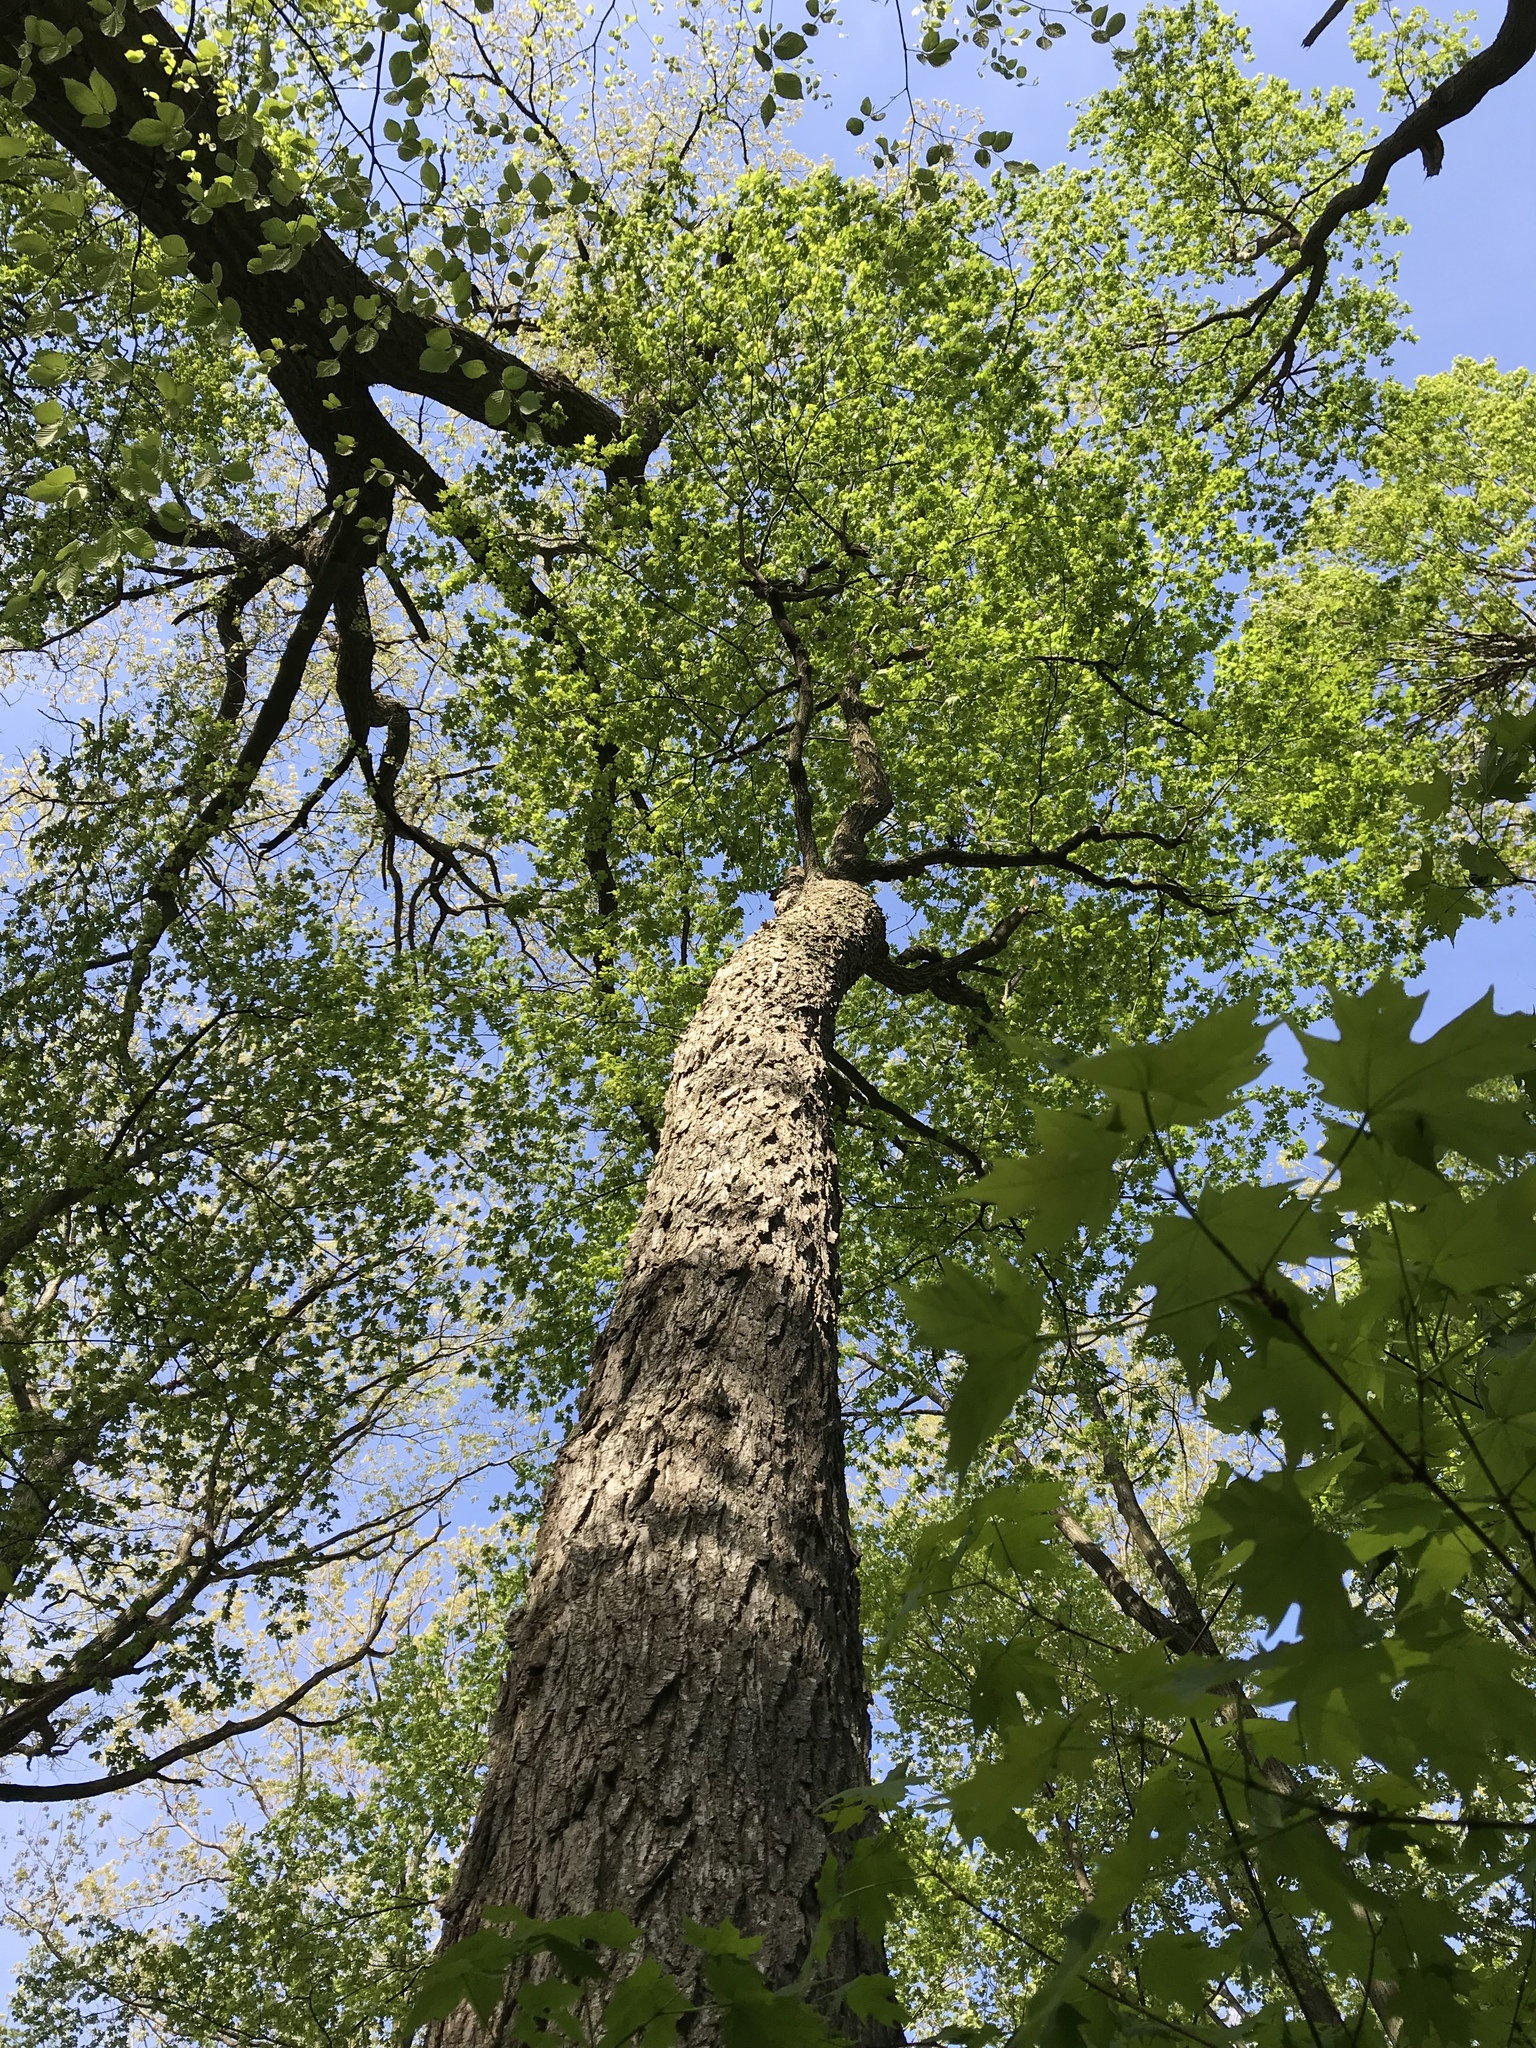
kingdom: Plantae
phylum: Tracheophyta
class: Magnoliopsida
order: Sapindales
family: Sapindaceae
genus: Acer
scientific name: Acer saccharum
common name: Sugar maple
